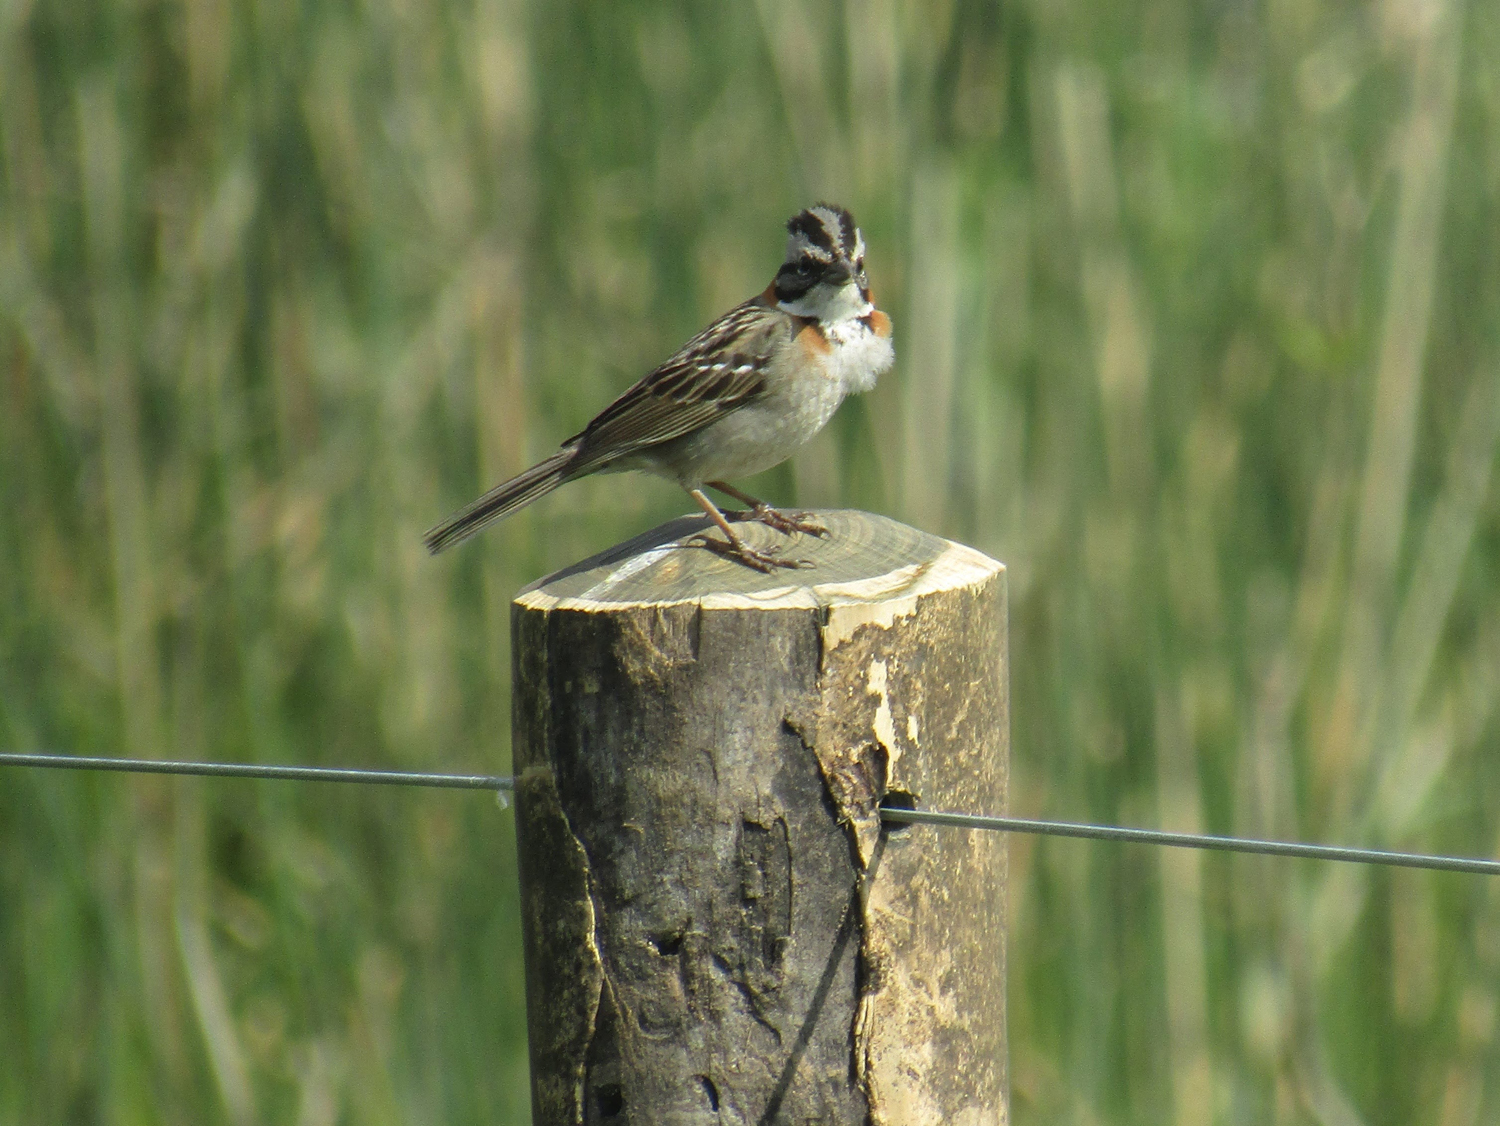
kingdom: Animalia
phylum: Chordata
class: Aves
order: Passeriformes
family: Passerellidae
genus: Zonotrichia
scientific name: Zonotrichia capensis
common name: Rufous-collared sparrow
